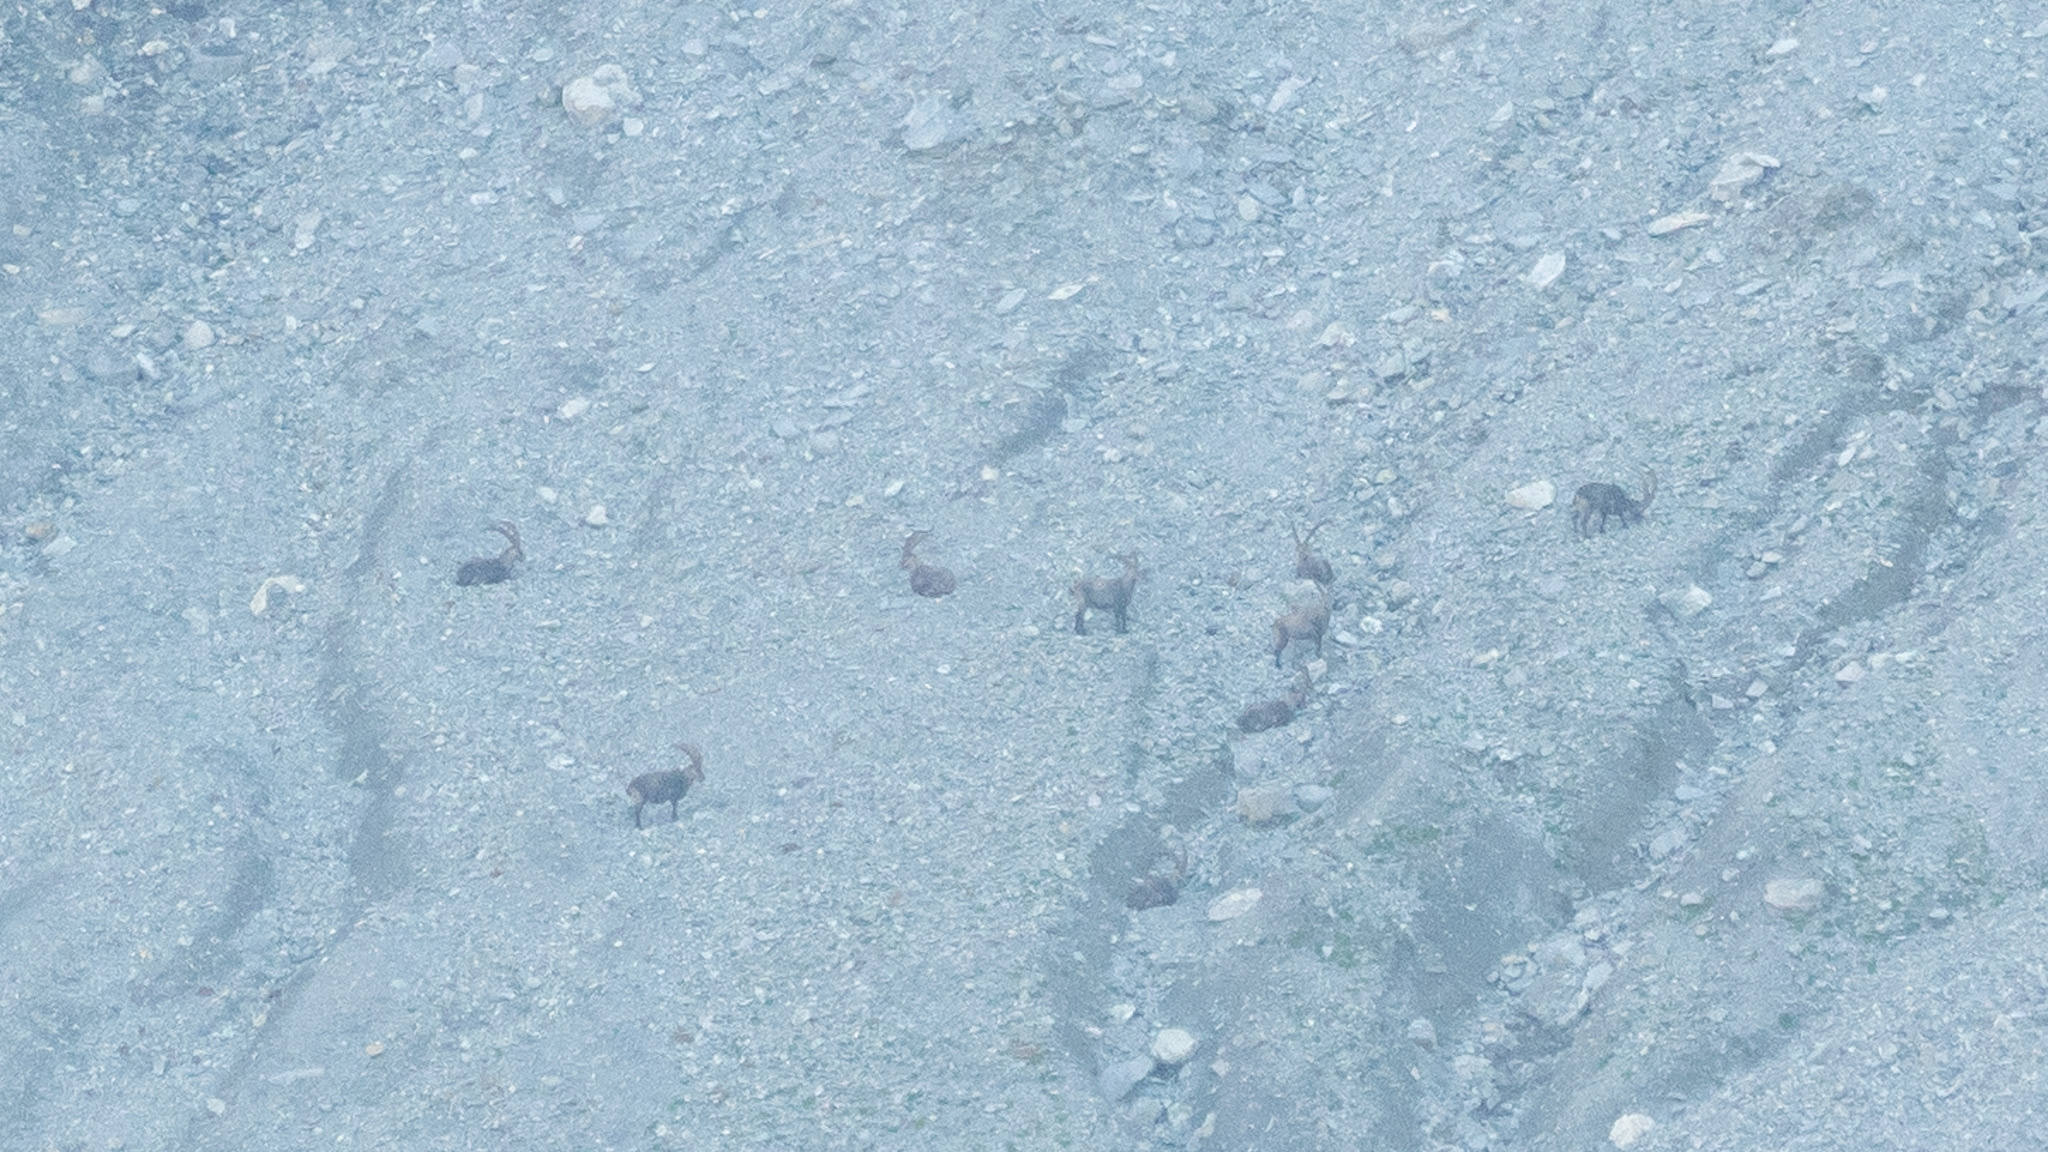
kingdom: Animalia
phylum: Chordata
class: Mammalia
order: Artiodactyla
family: Bovidae
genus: Capra
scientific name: Capra ibex
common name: Alpine ibex
